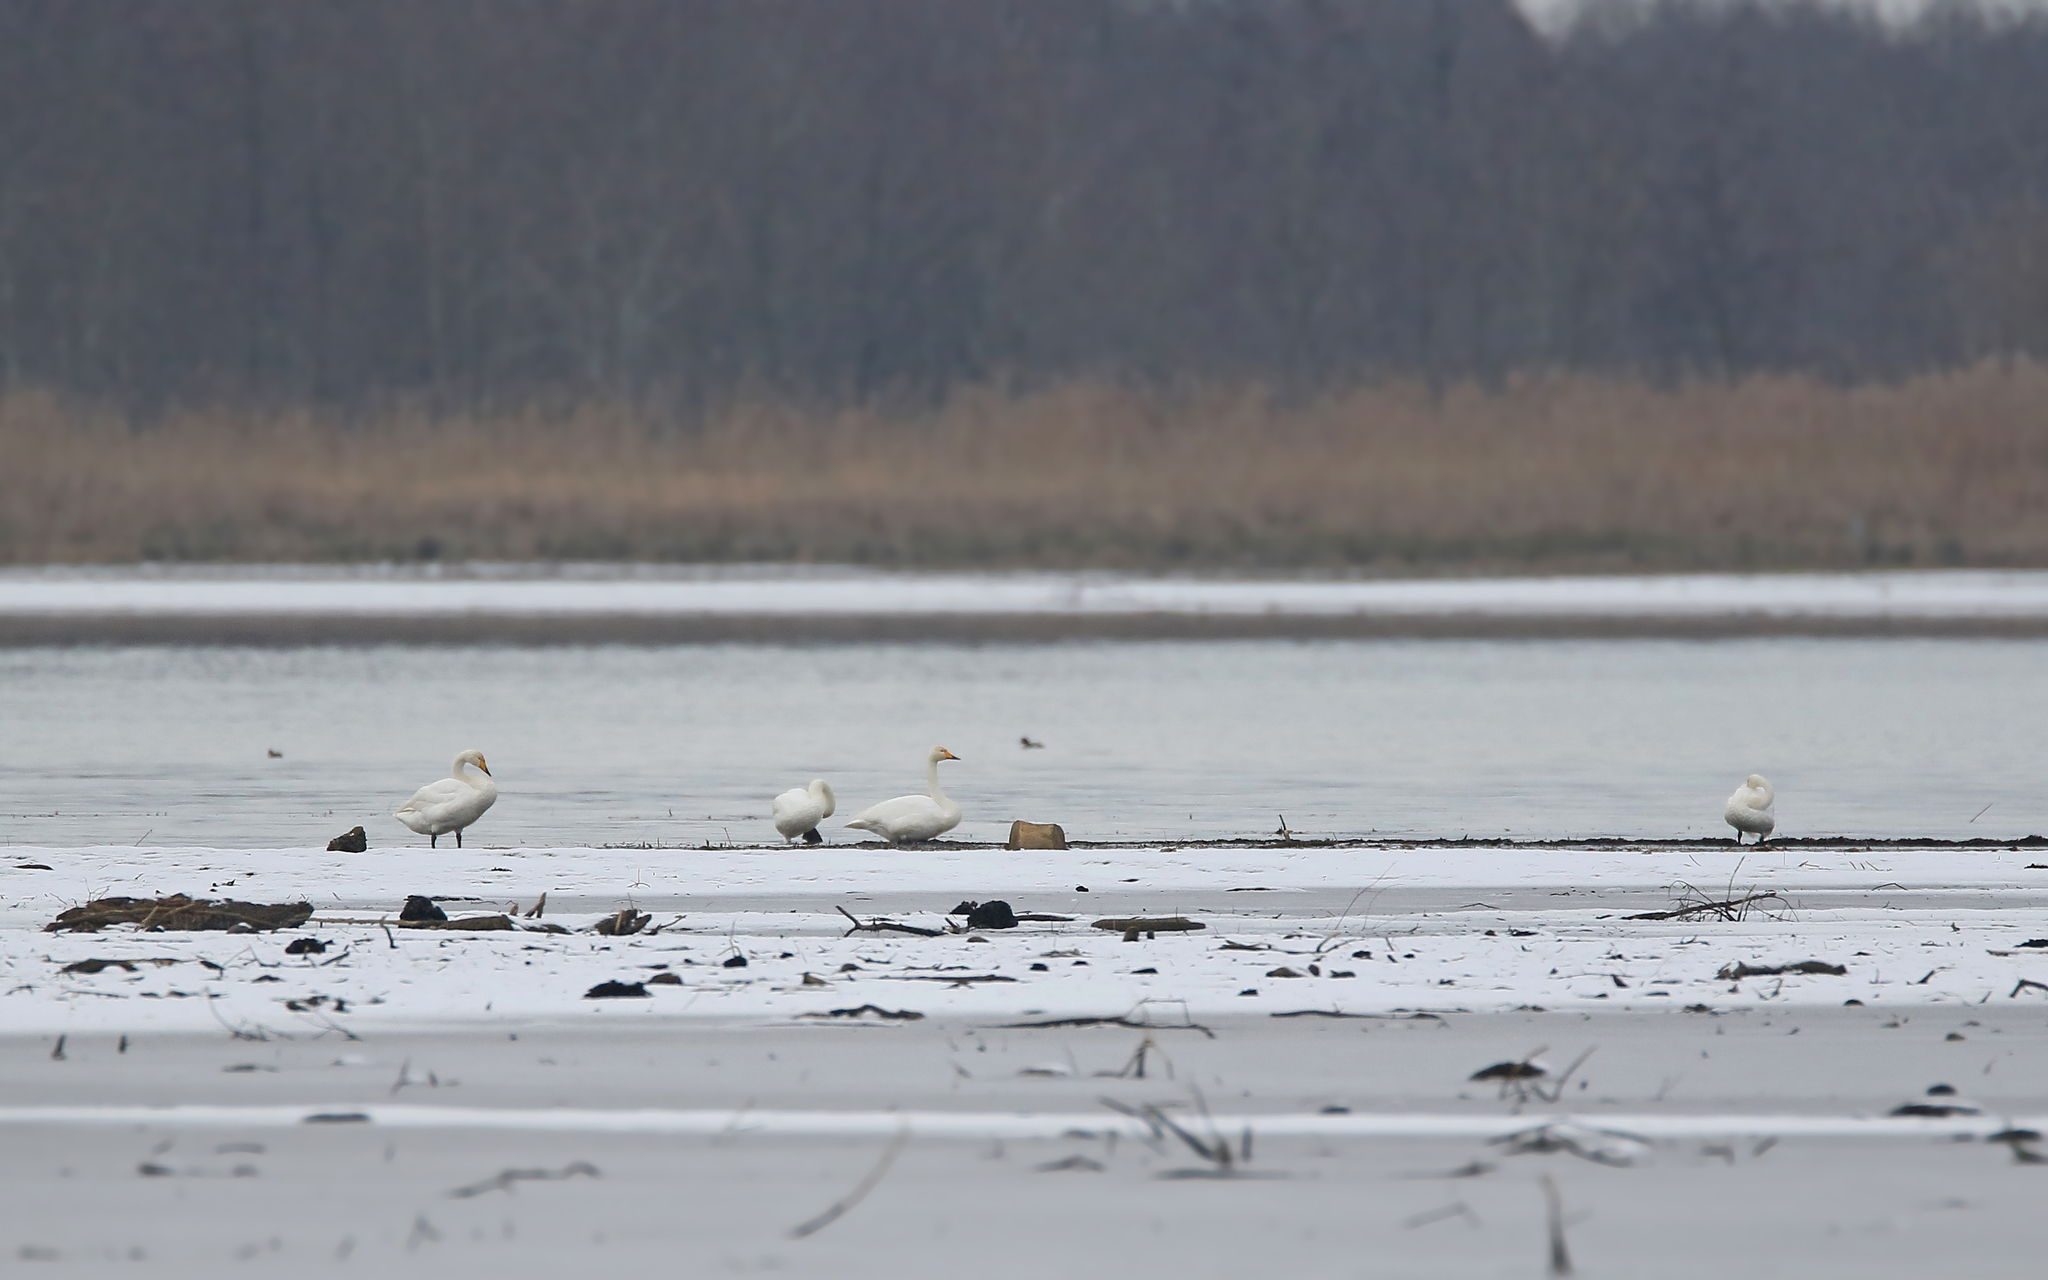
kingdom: Animalia
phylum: Chordata
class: Aves
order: Anseriformes
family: Anatidae
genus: Cygnus
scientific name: Cygnus cygnus
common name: Whooper swan
